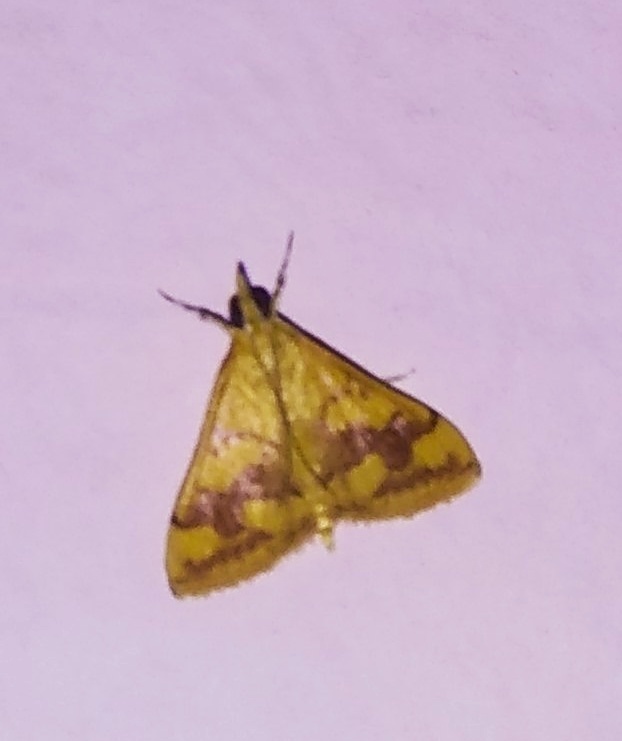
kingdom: Animalia
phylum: Arthropoda
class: Insecta
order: Lepidoptera
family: Crambidae
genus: Pyrausta
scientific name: Pyrausta phoenicealis
